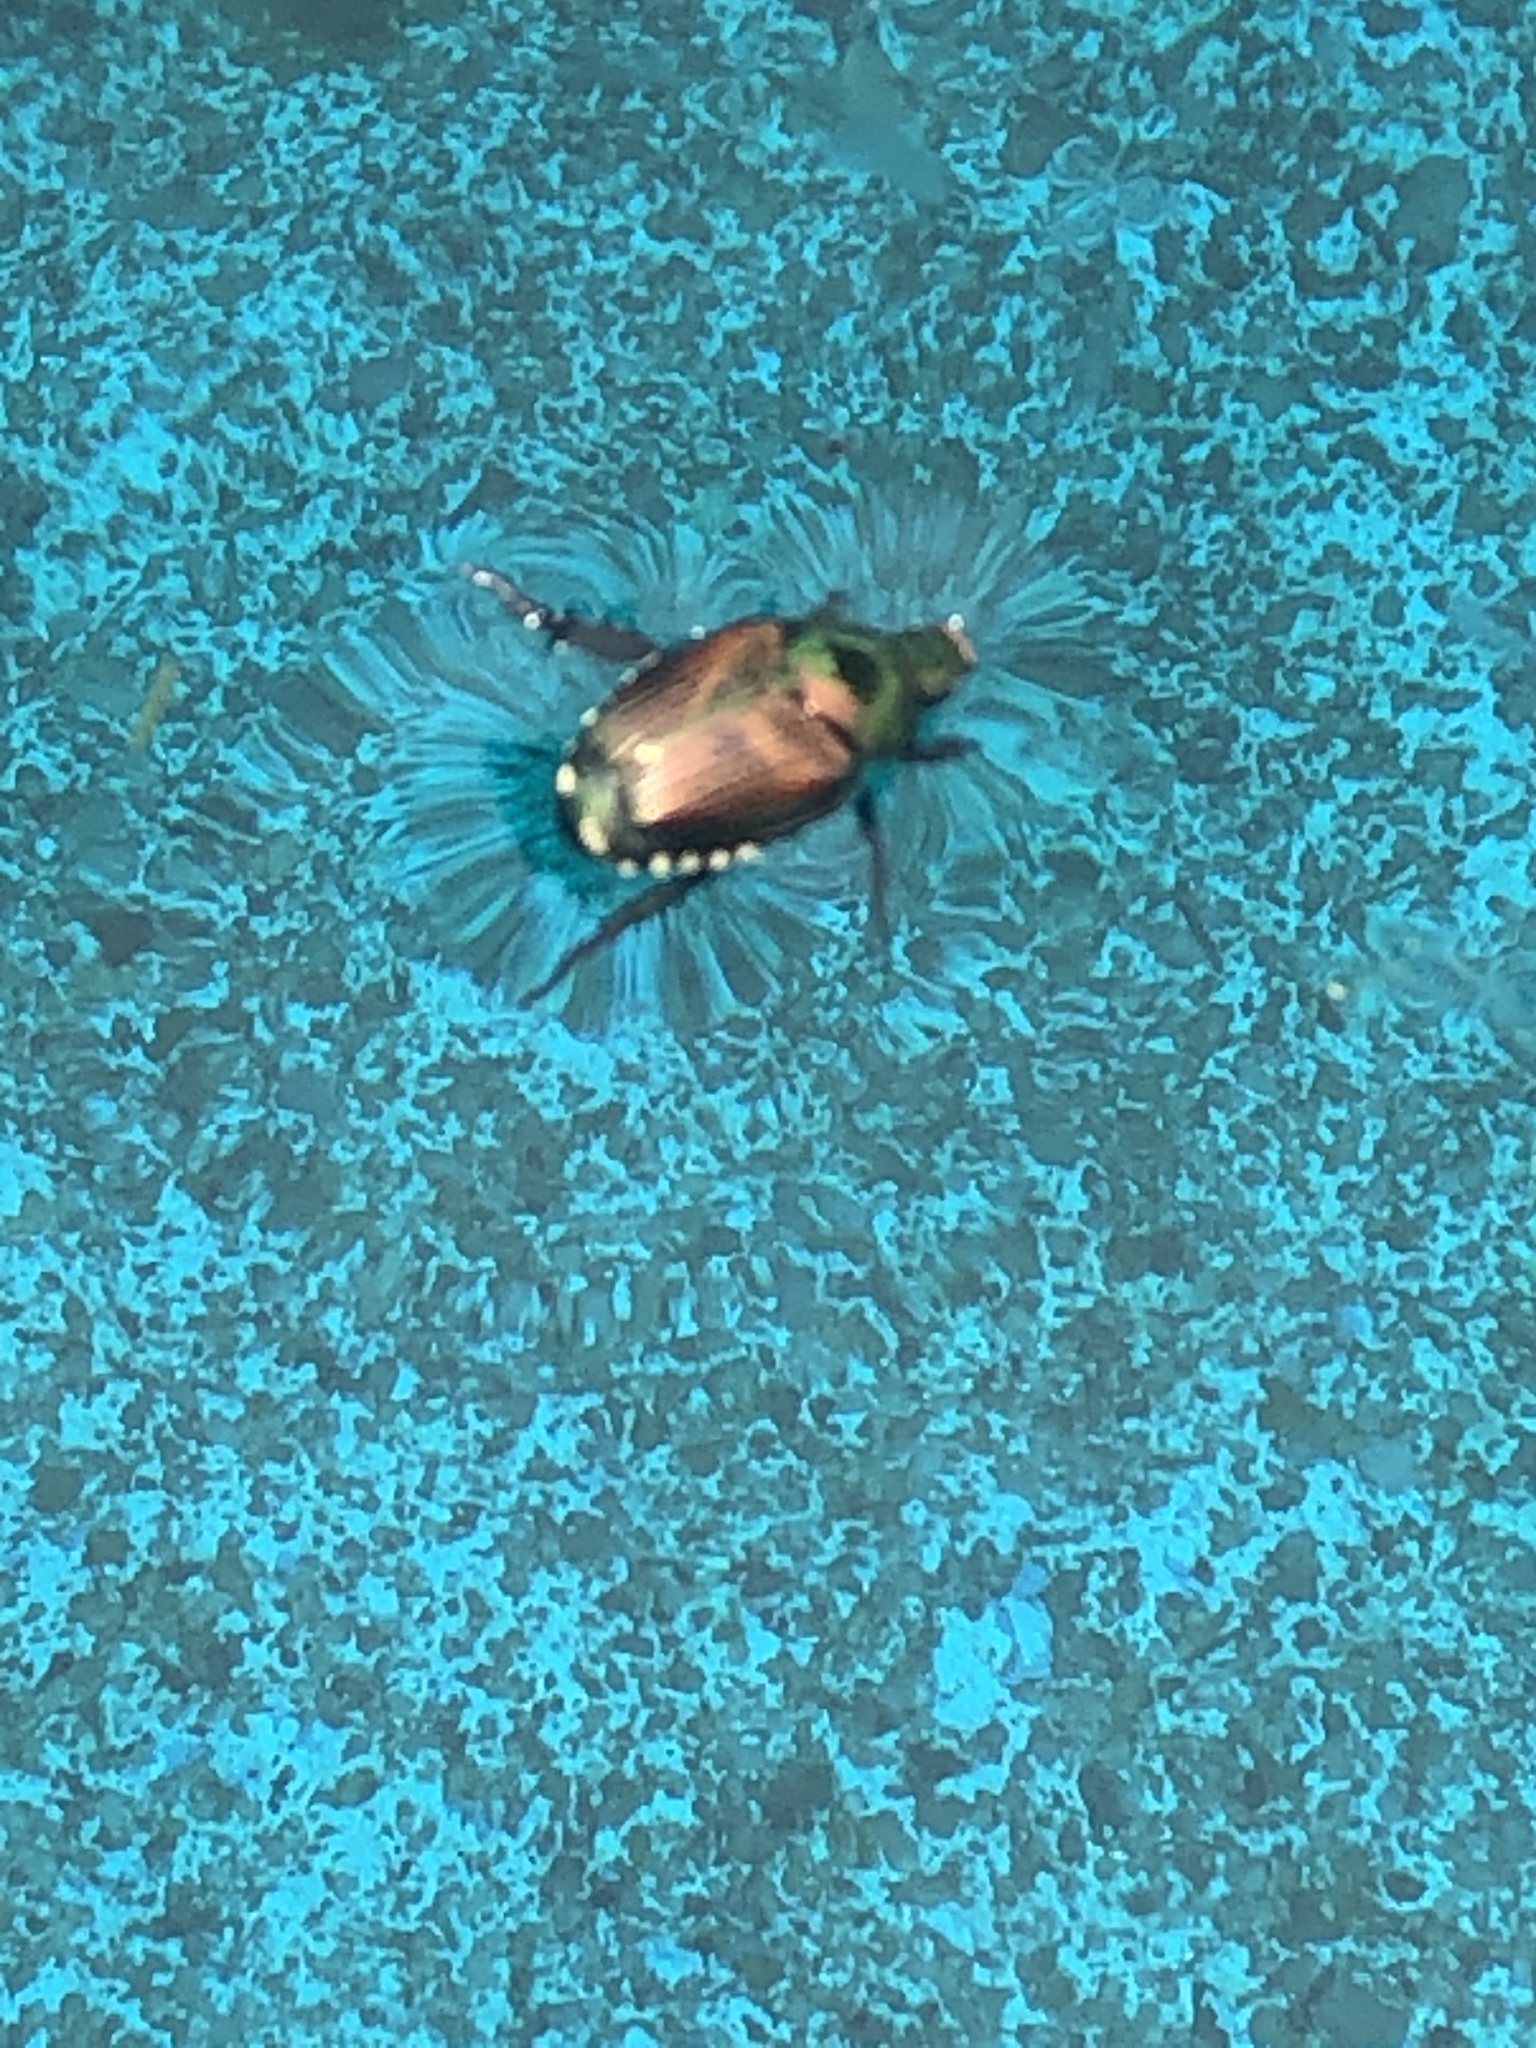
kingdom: Animalia
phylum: Arthropoda
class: Insecta
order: Coleoptera
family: Scarabaeidae
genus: Popillia
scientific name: Popillia japonica
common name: Japanese beetle
